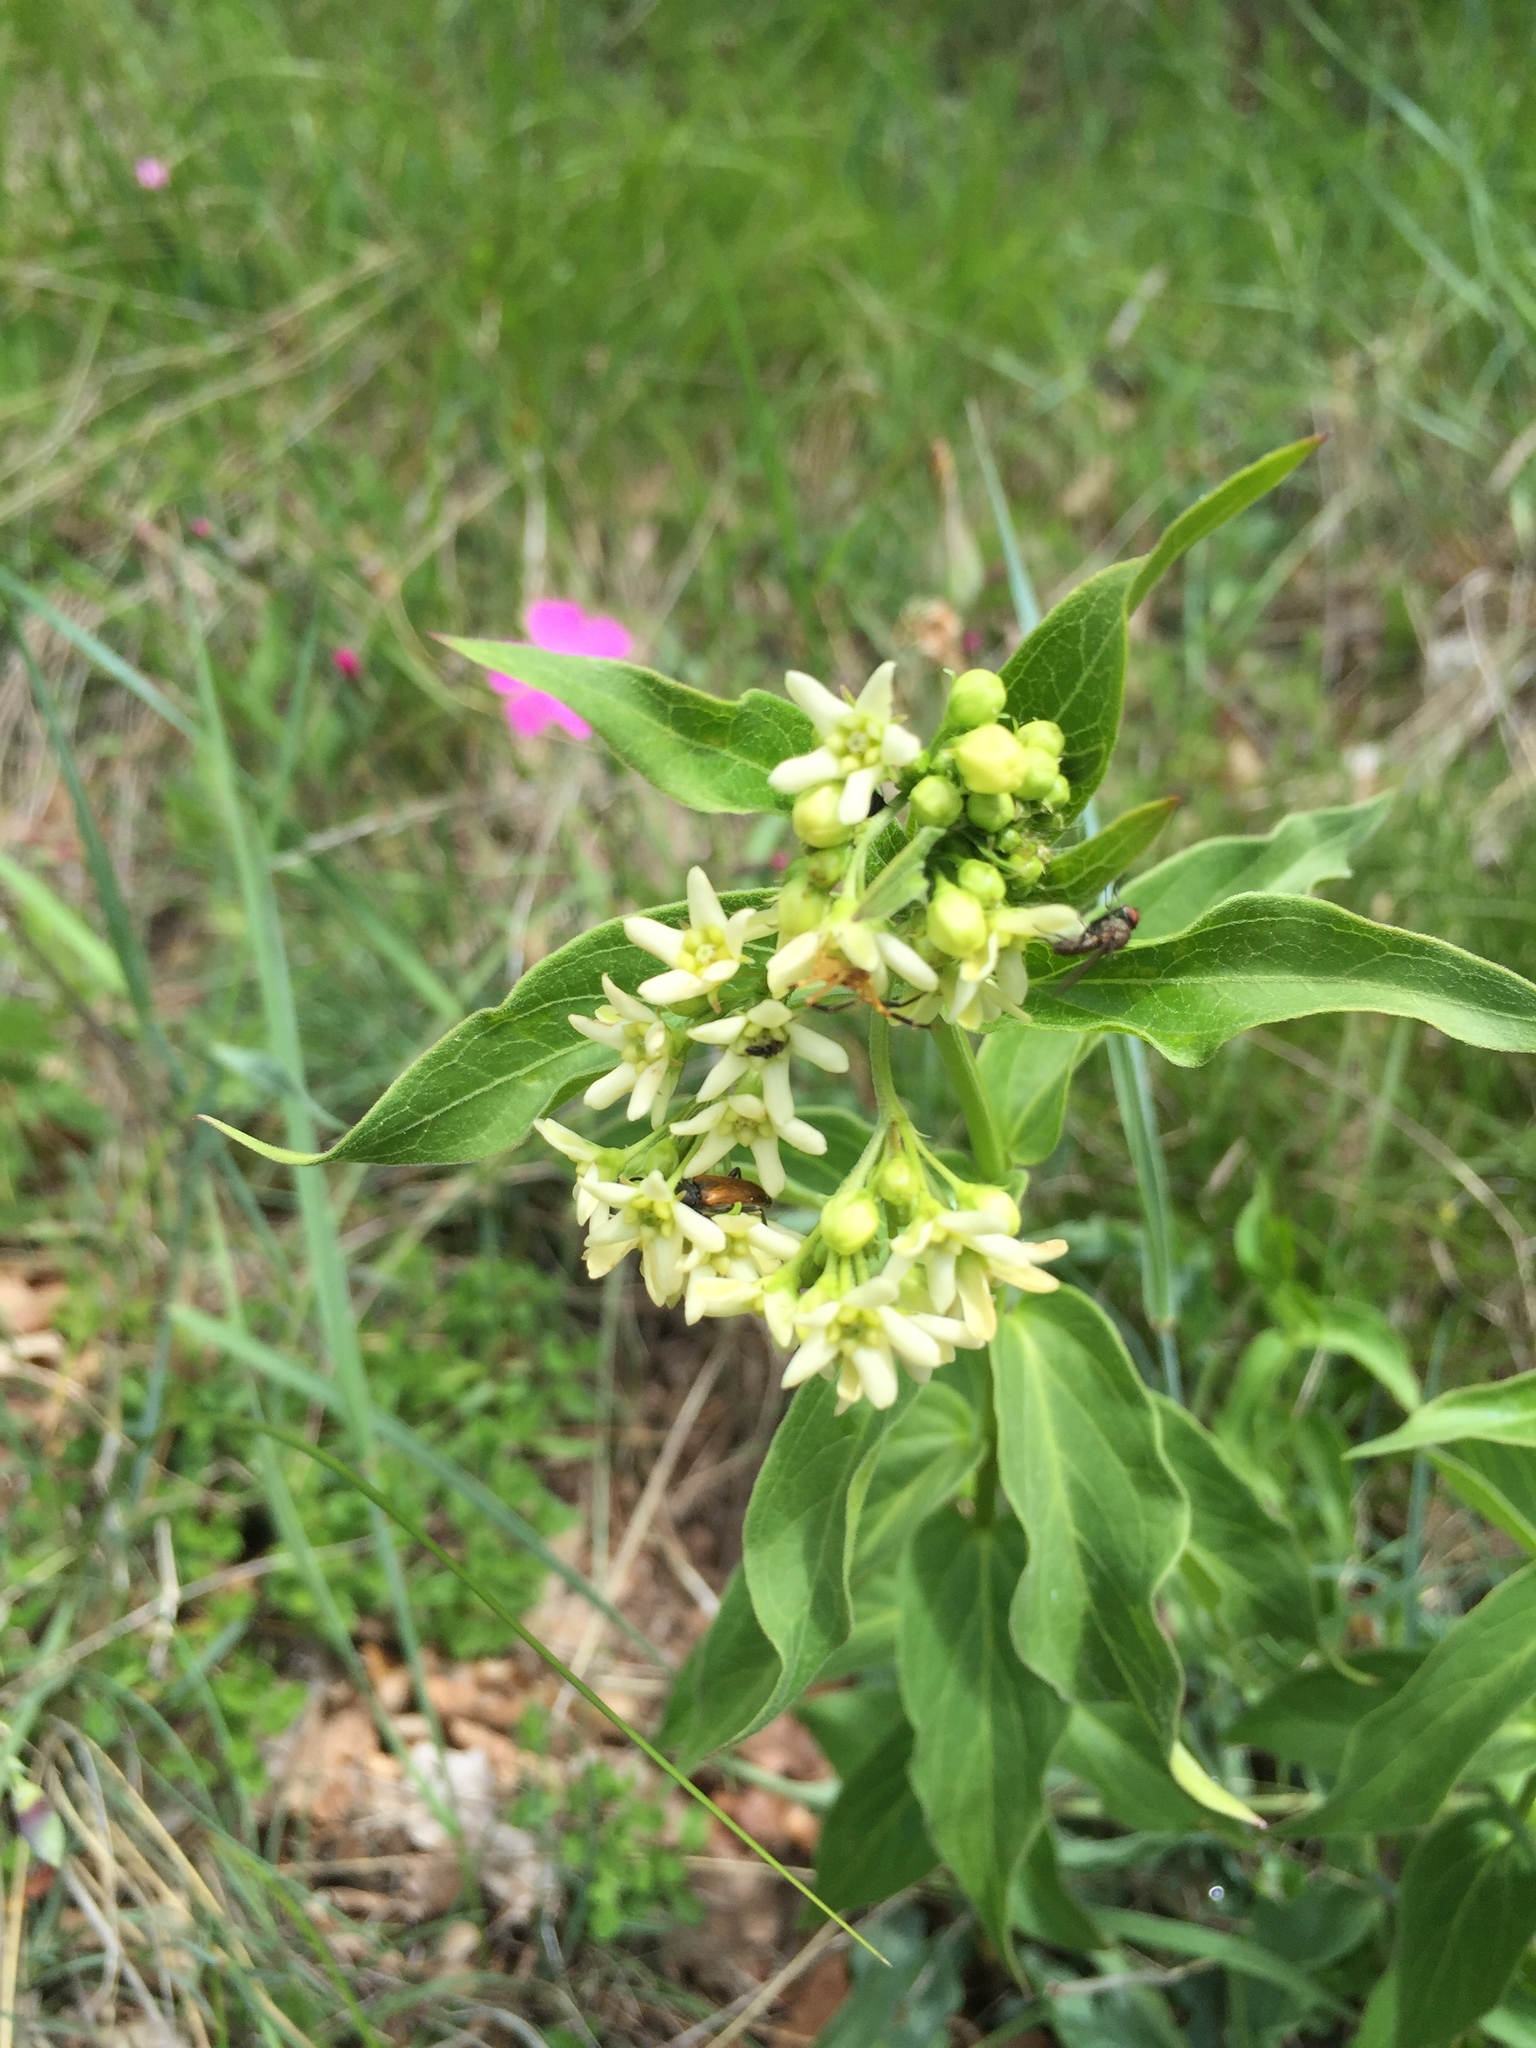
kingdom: Plantae
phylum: Tracheophyta
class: Magnoliopsida
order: Gentianales
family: Apocynaceae
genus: Vincetoxicum
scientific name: Vincetoxicum hirundinaria
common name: White swallowwort
